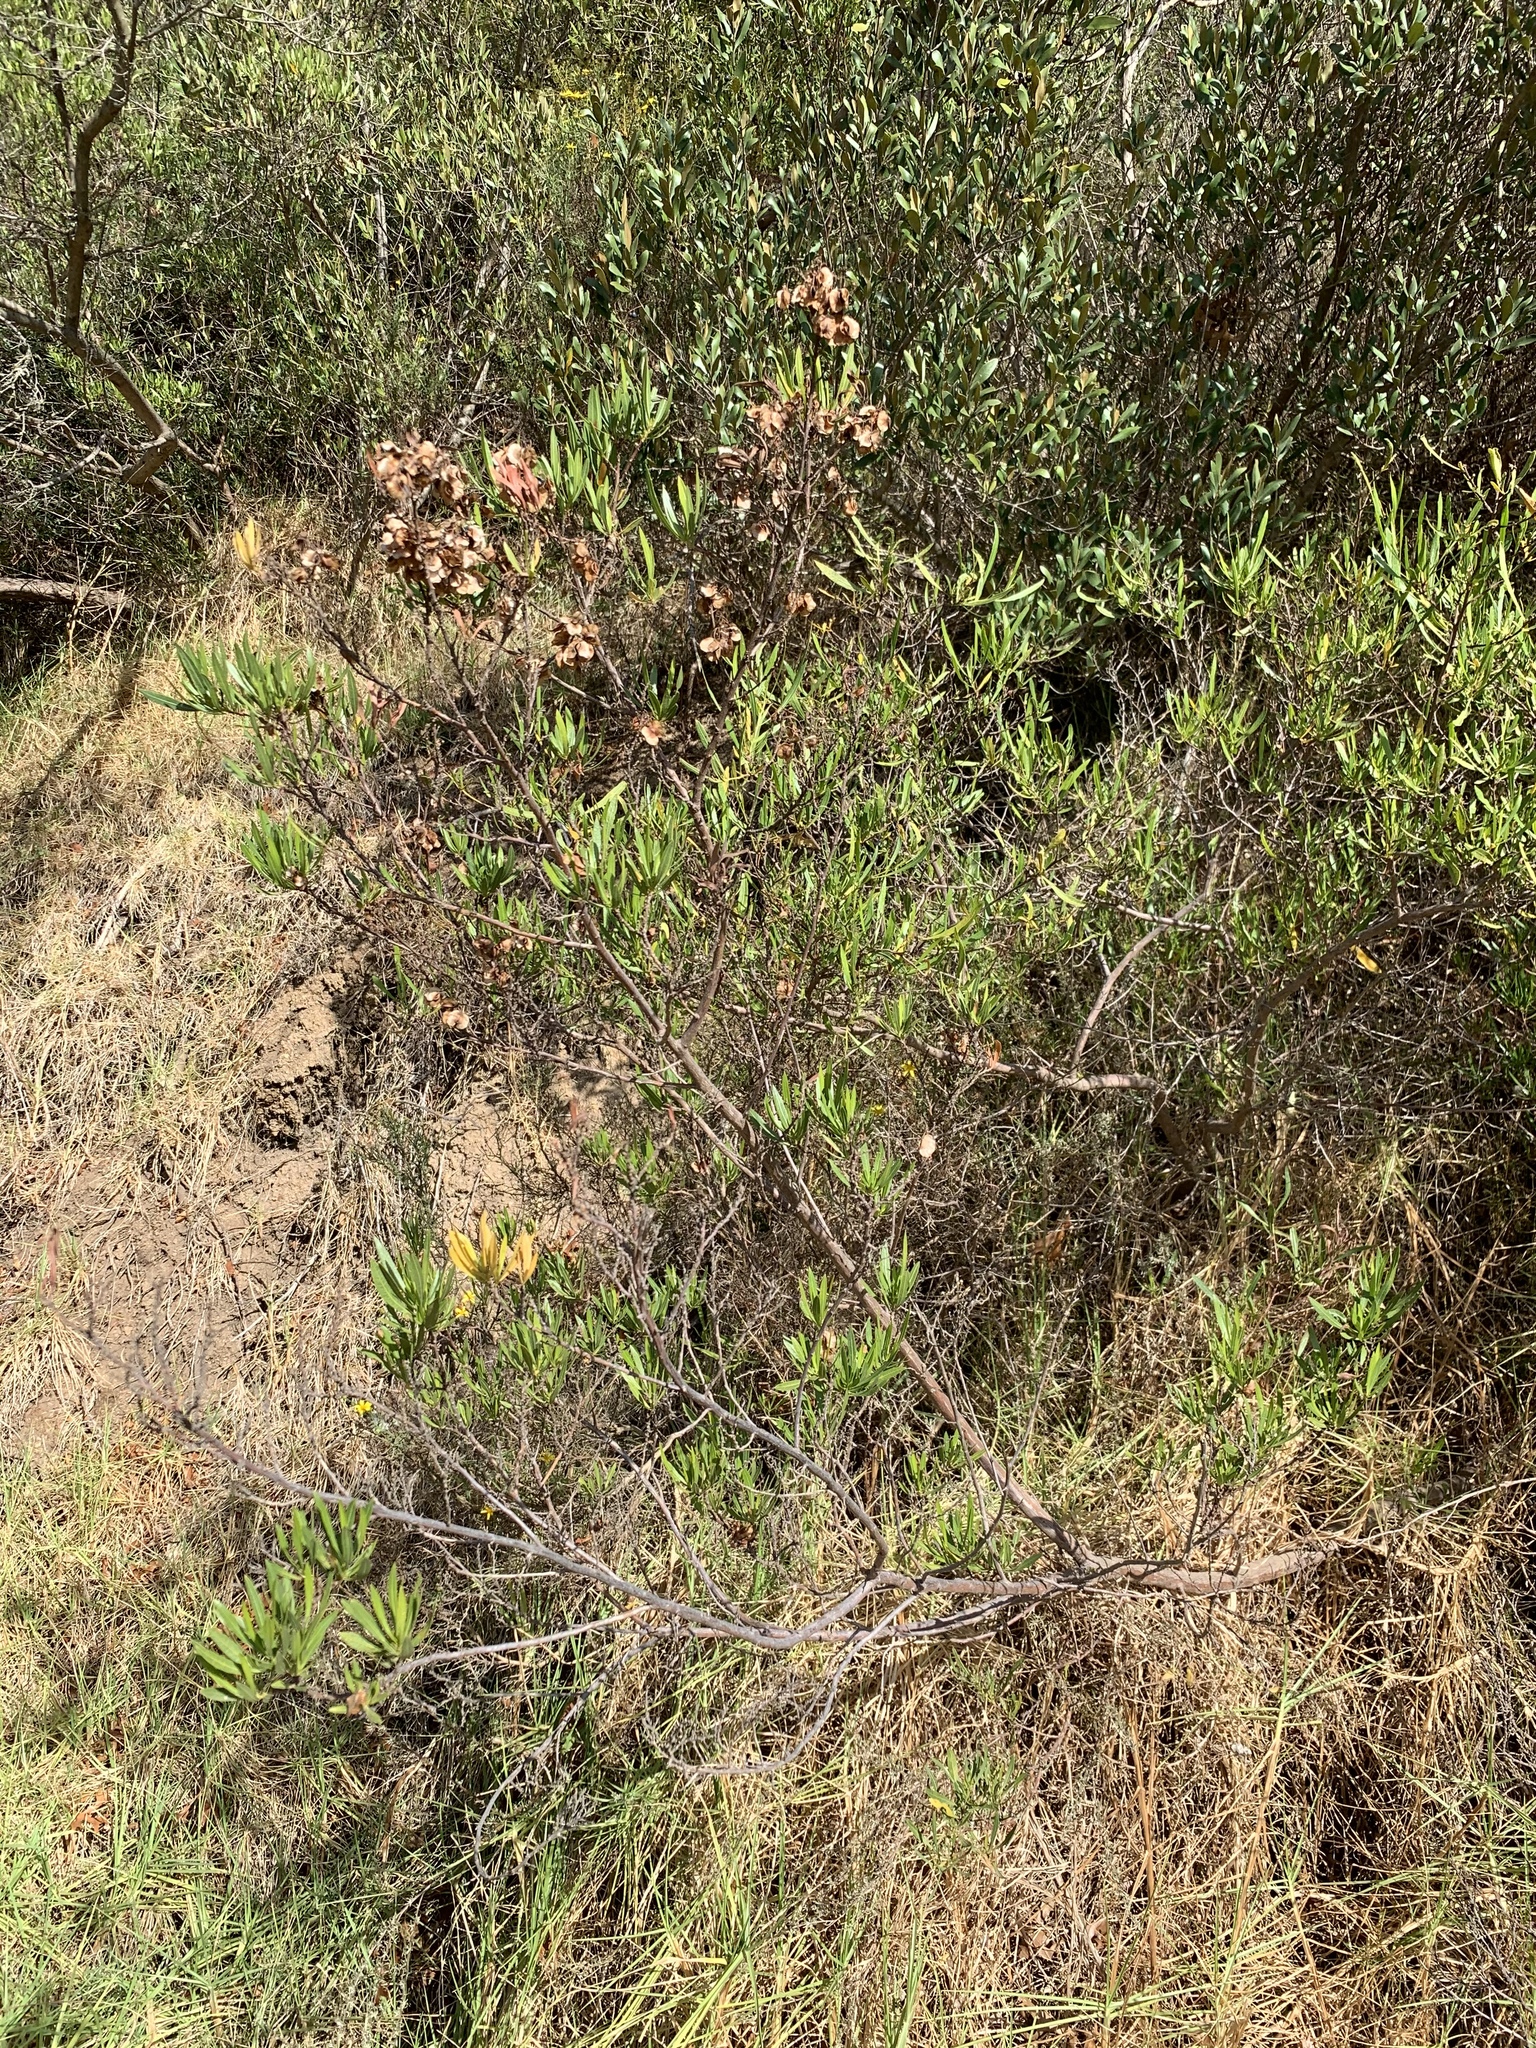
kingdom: Plantae
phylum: Tracheophyta
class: Magnoliopsida
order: Sapindales
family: Sapindaceae
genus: Dodonaea
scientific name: Dodonaea viscosa
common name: Hopbush
